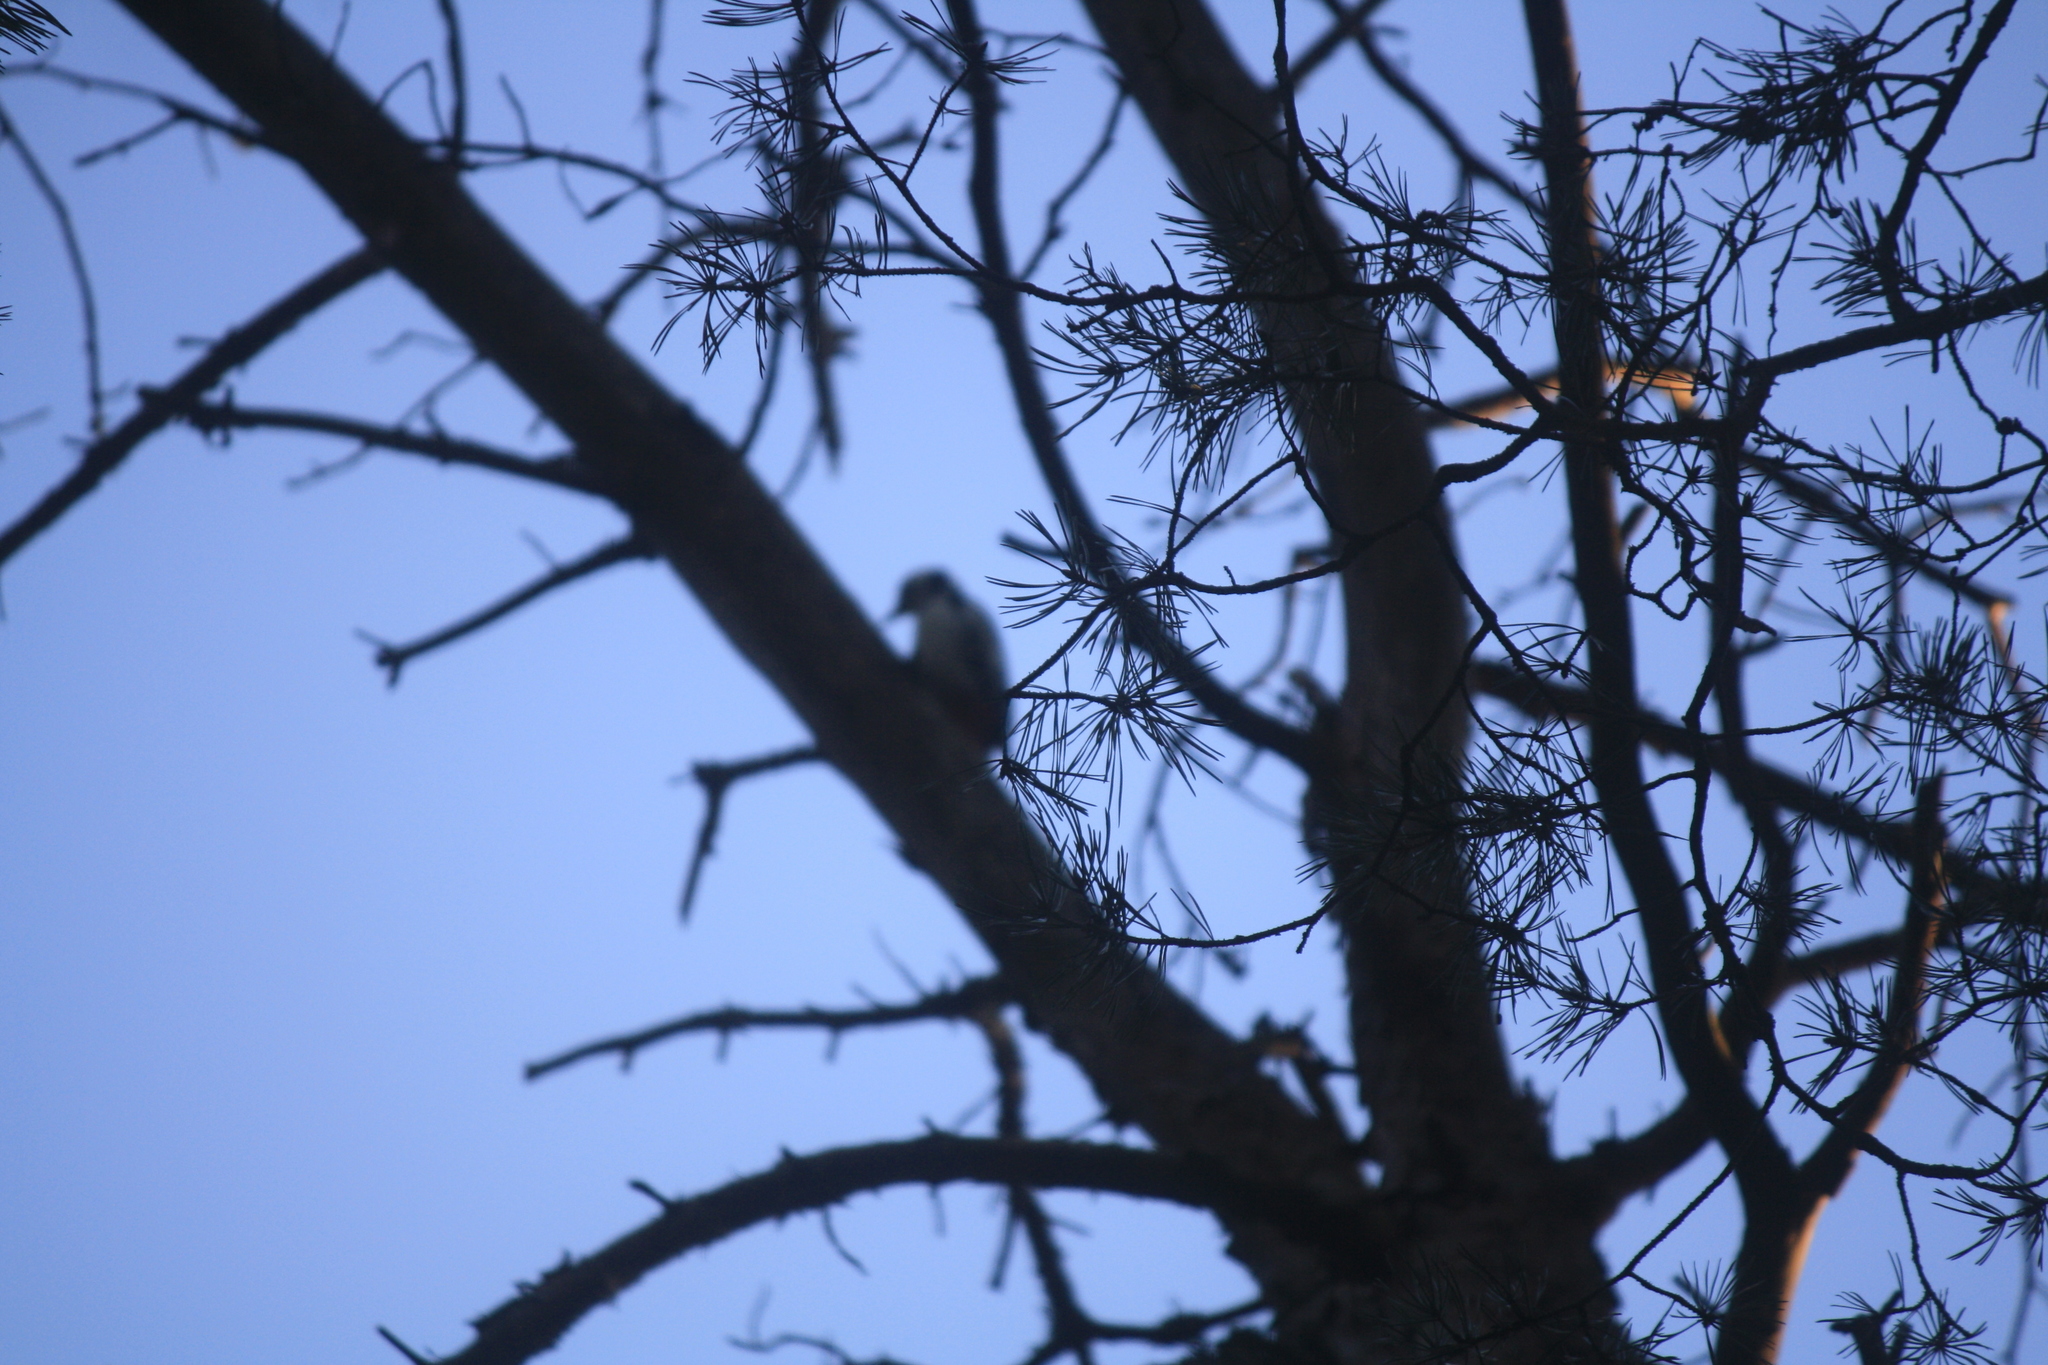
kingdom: Animalia
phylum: Chordata
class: Aves
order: Piciformes
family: Picidae
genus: Dendrocopos
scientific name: Dendrocopos major
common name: Great spotted woodpecker
